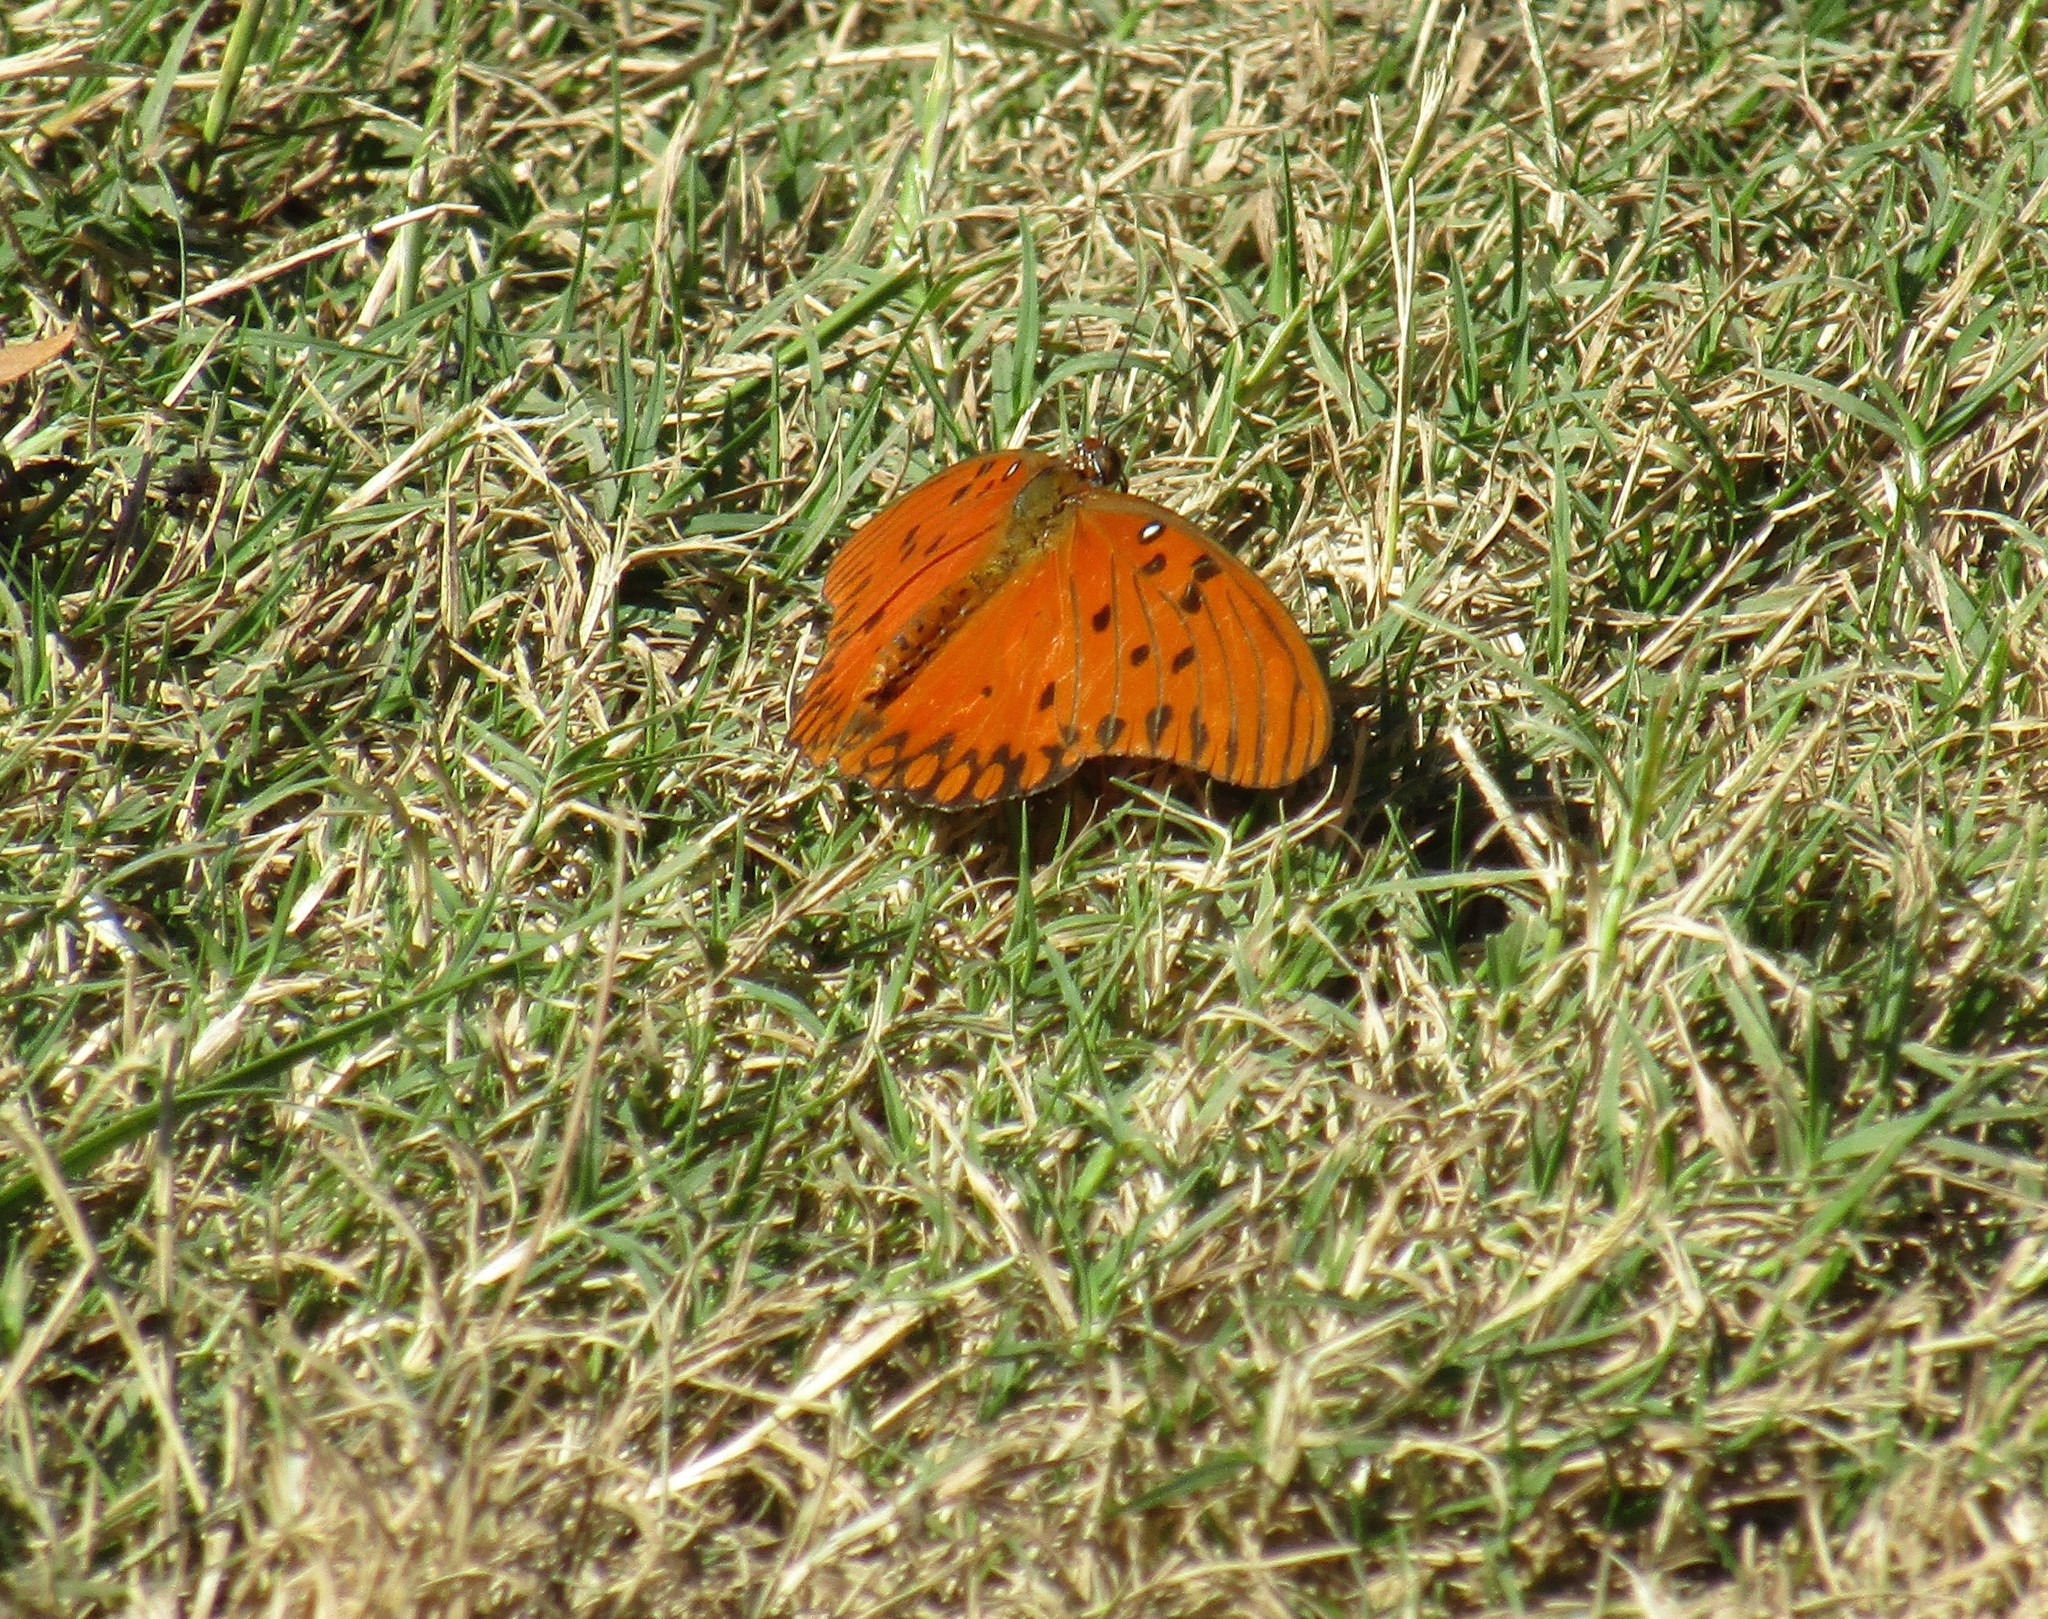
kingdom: Animalia
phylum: Arthropoda
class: Insecta
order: Lepidoptera
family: Nymphalidae
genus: Dione
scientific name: Dione vanillae
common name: Gulf fritillary
